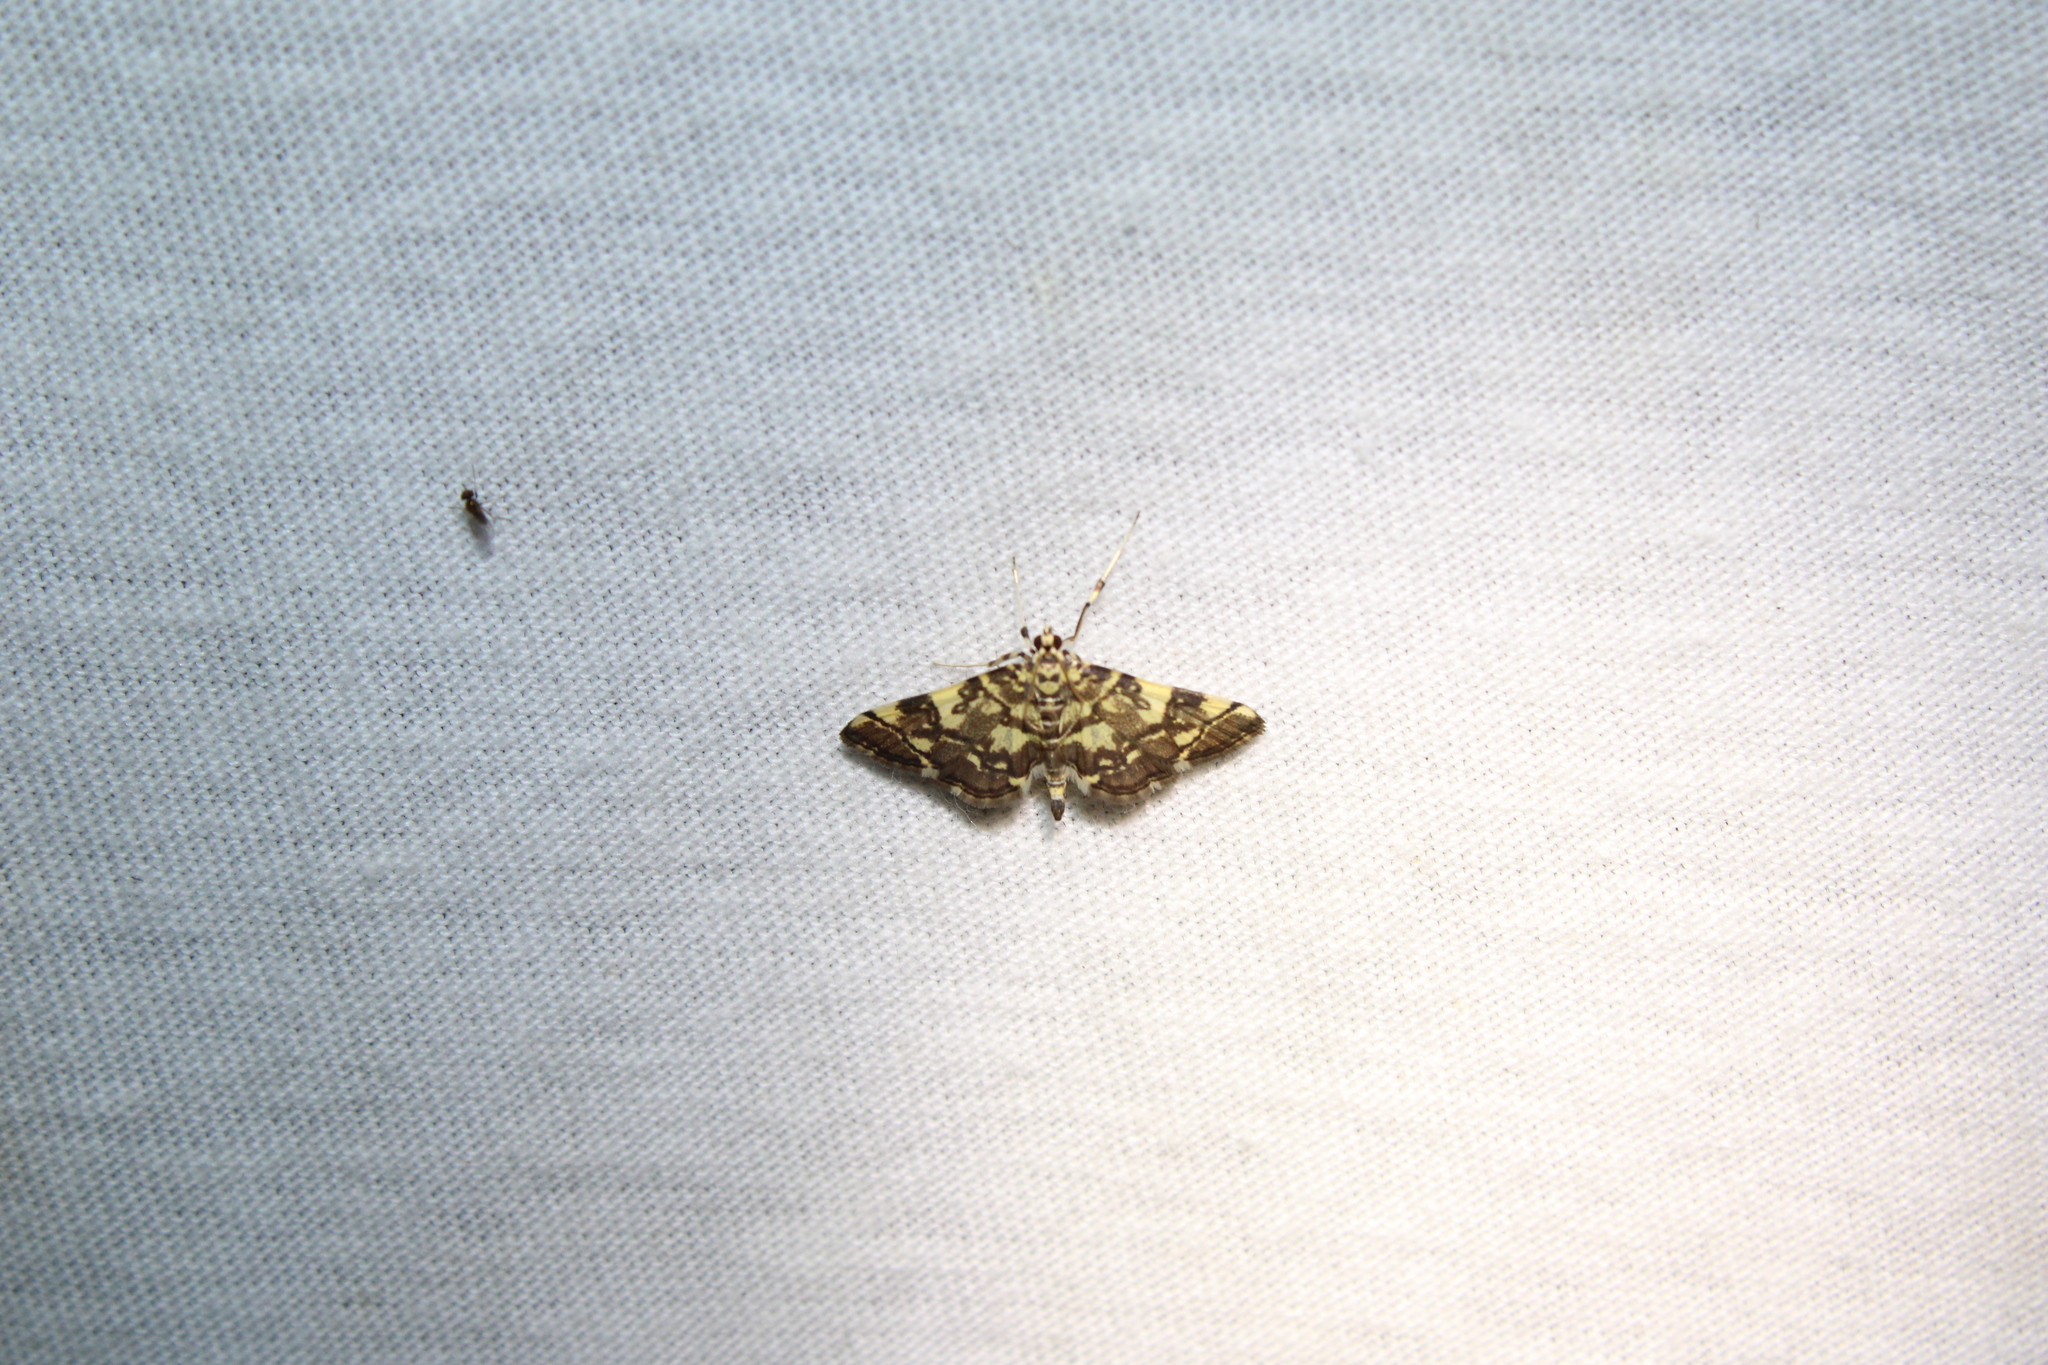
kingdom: Animalia
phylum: Arthropoda
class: Insecta
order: Lepidoptera
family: Crambidae
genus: Apogeshna
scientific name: Apogeshna stenialis
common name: Checkered apogeshna moth
